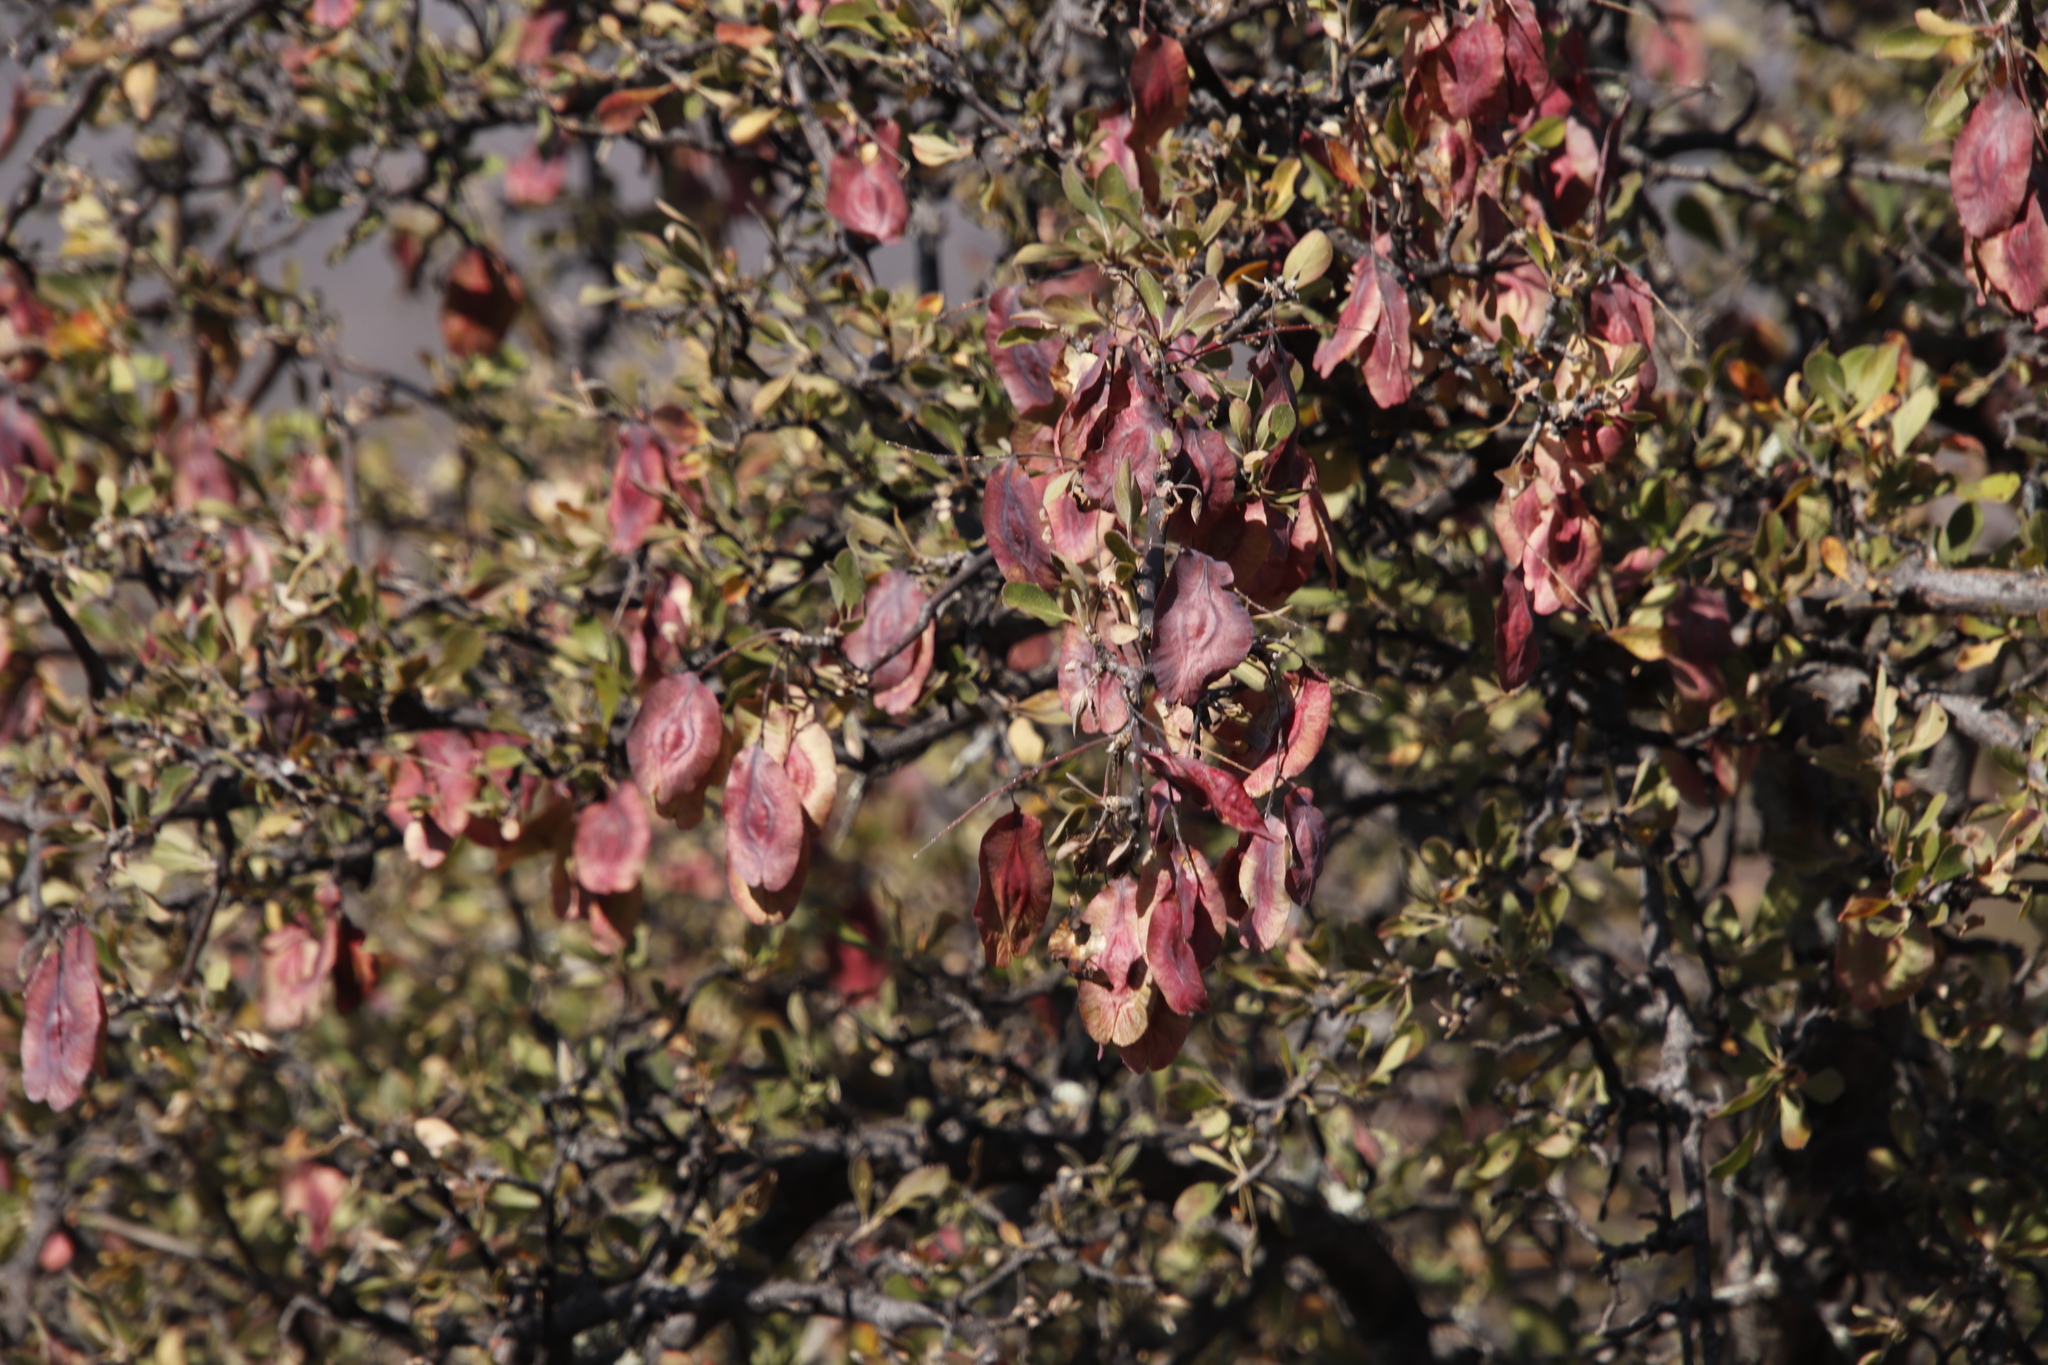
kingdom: Plantae
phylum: Tracheophyta
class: Magnoliopsida
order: Myrtales
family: Combretaceae
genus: Terminalia
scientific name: Terminalia prunioides
